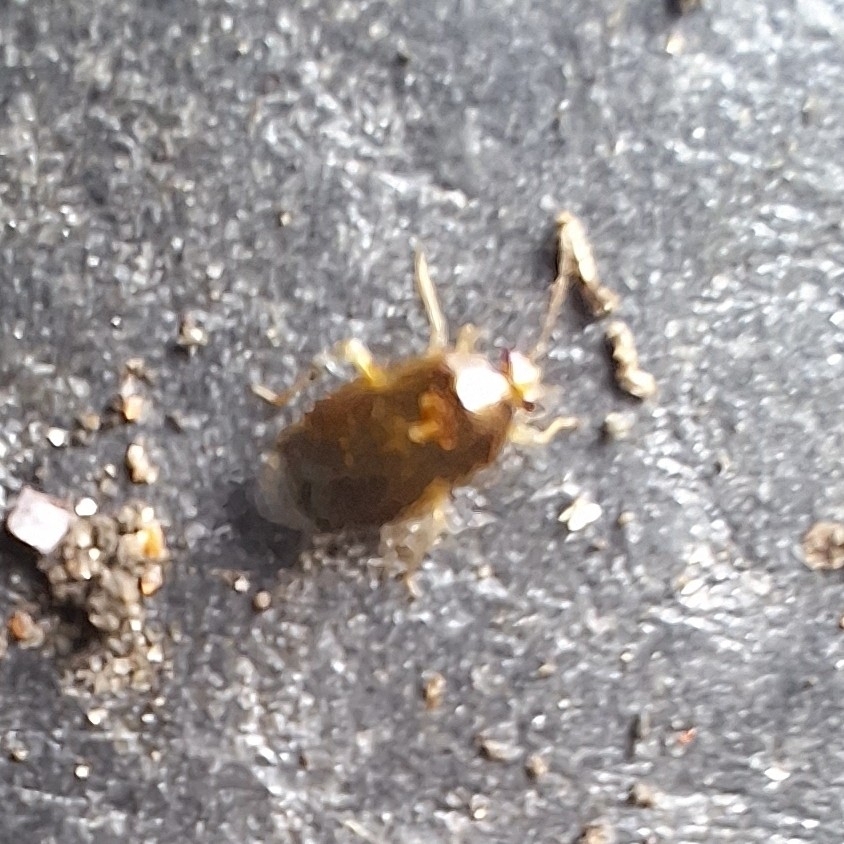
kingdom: Animalia
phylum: Arthropoda
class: Insecta
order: Hemiptera
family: Miridae
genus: Deraeocoris
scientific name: Deraeocoris lutescens
